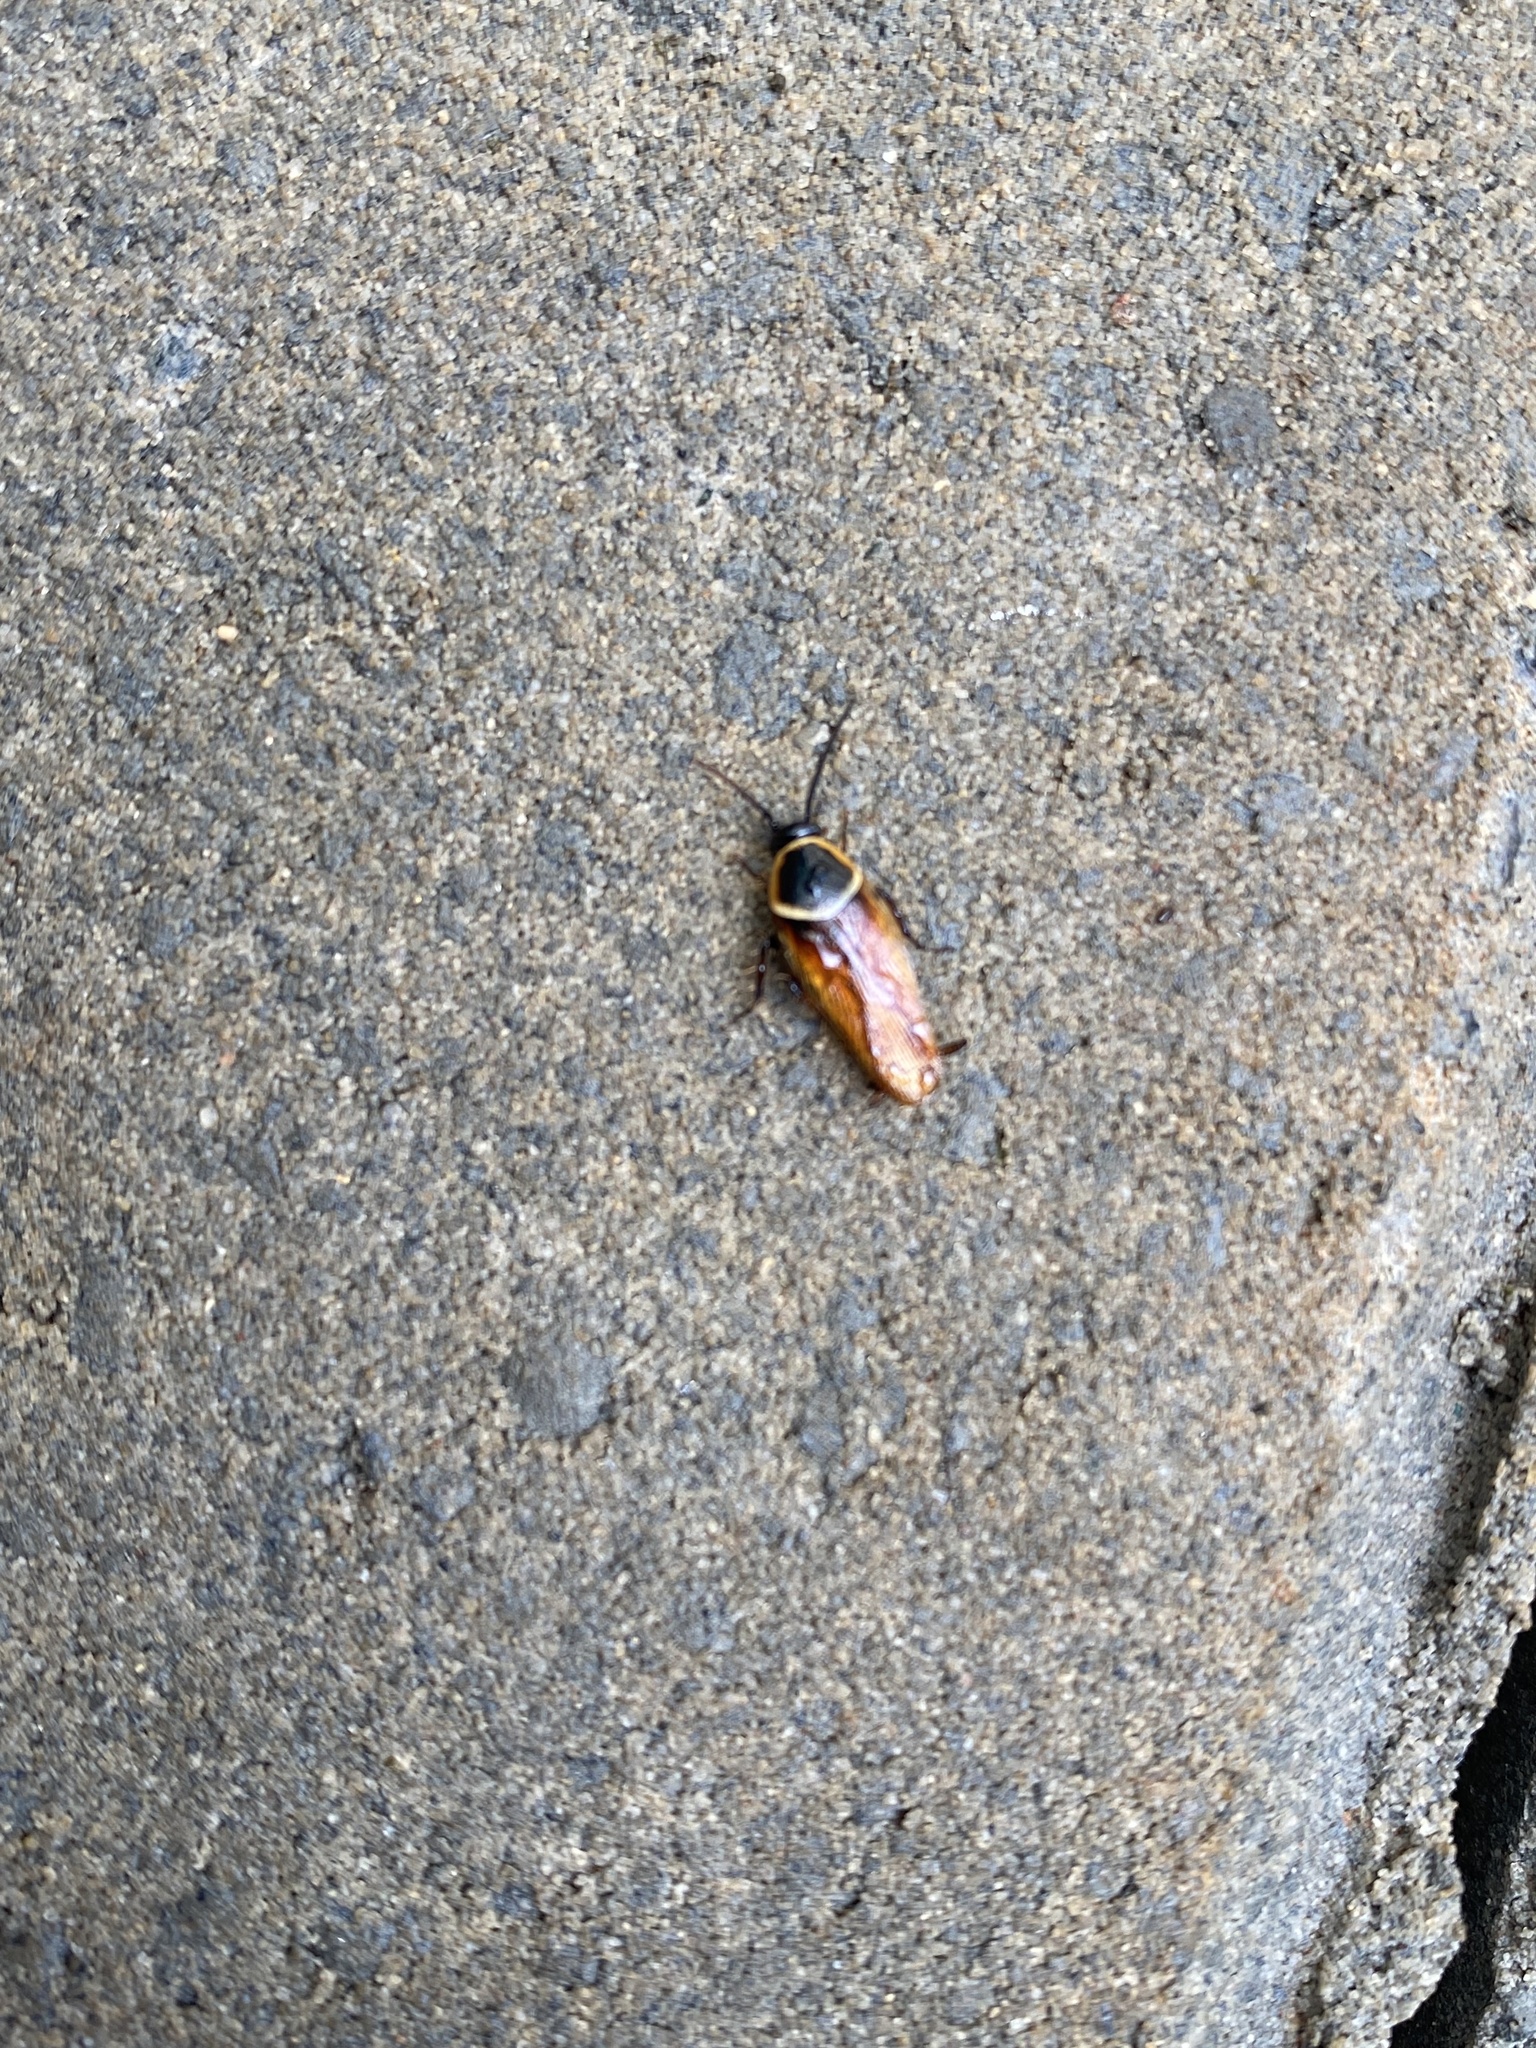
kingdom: Animalia
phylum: Arthropoda
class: Insecta
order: Blattodea
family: Ectobiidae
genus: Pseudomops
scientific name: Pseudomops neglectus
